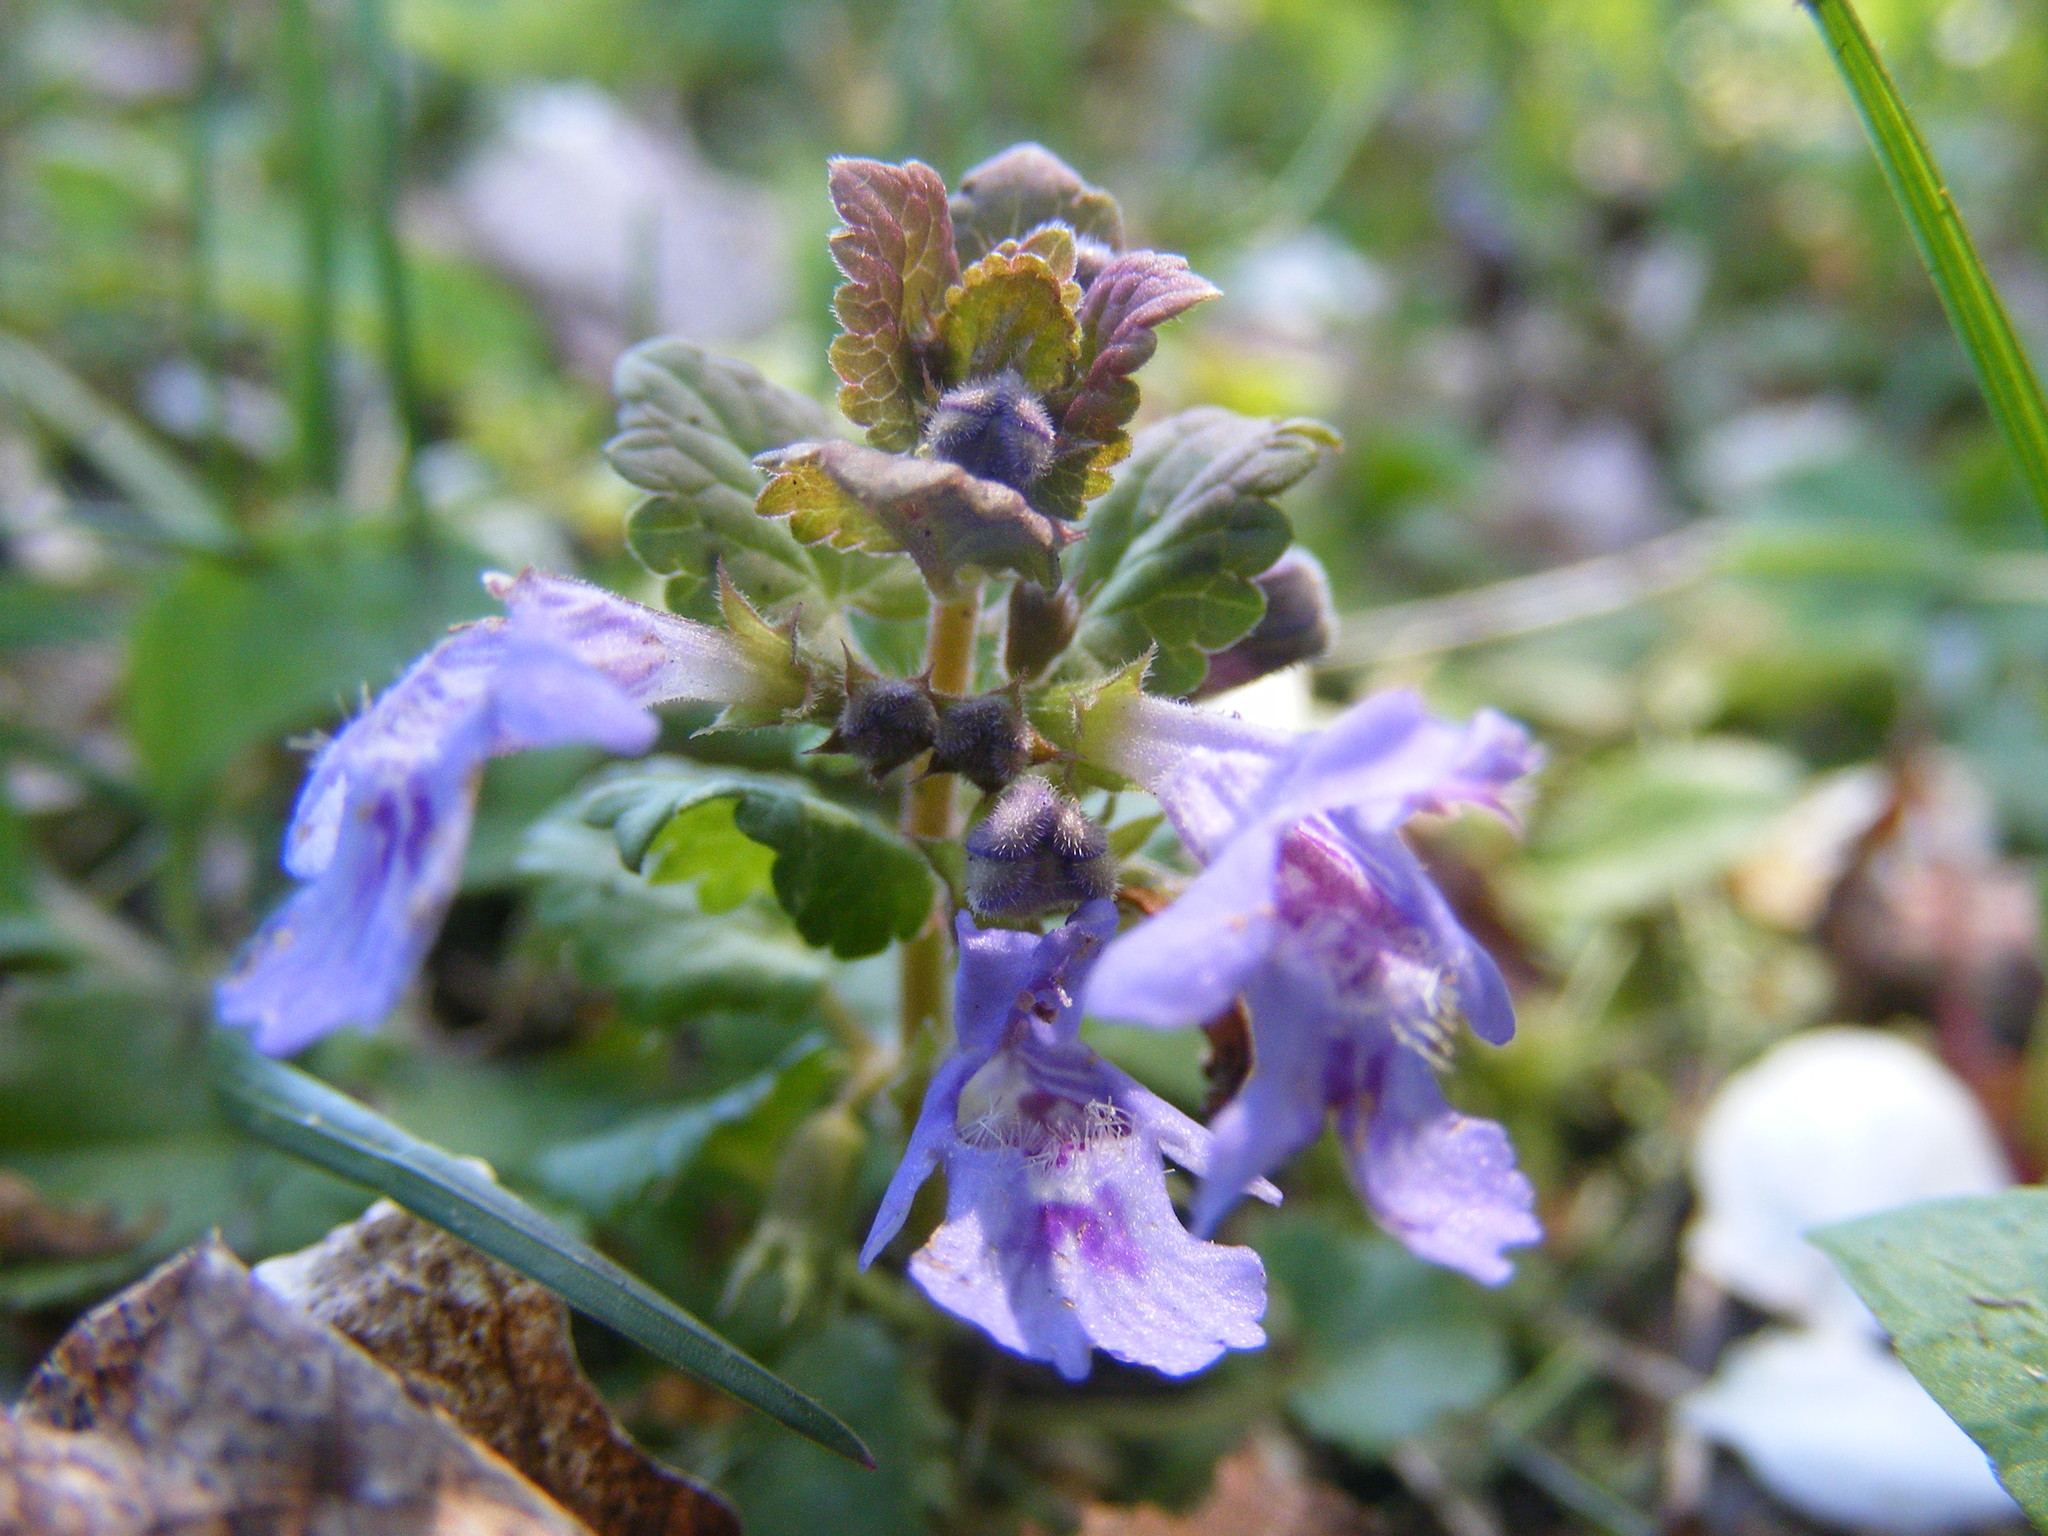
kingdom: Plantae
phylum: Tracheophyta
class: Magnoliopsida
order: Lamiales
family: Lamiaceae
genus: Glechoma
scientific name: Glechoma hederacea
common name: Ground ivy
